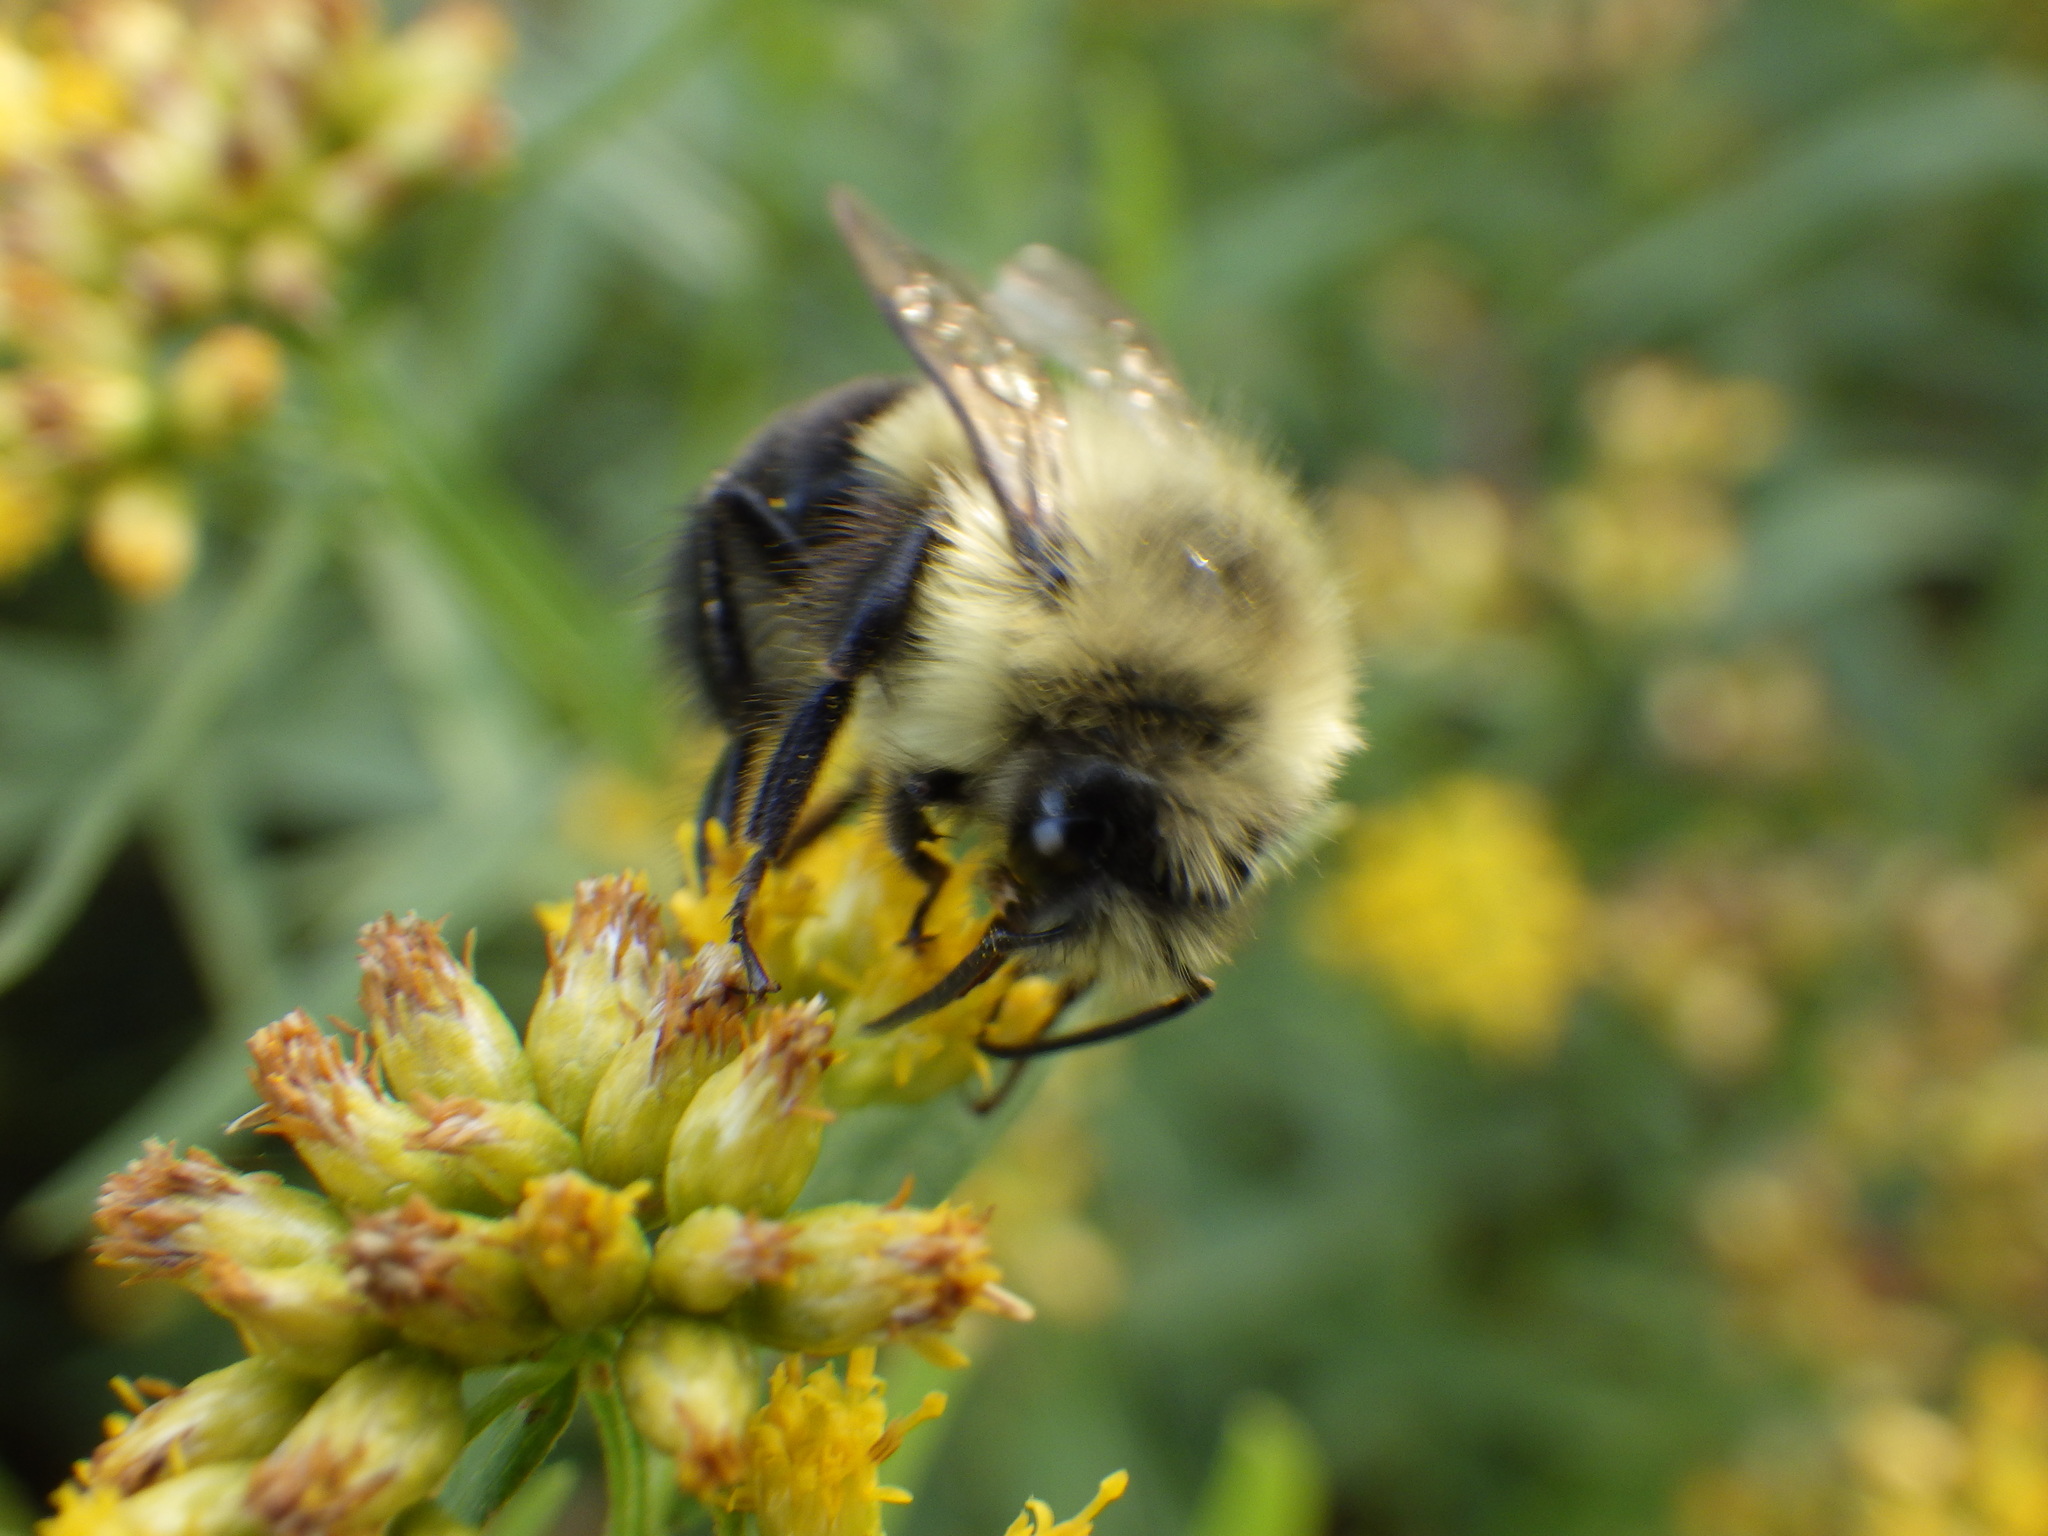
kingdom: Animalia
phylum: Arthropoda
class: Insecta
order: Hymenoptera
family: Apidae
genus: Bombus
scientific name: Bombus impatiens
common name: Common eastern bumble bee
